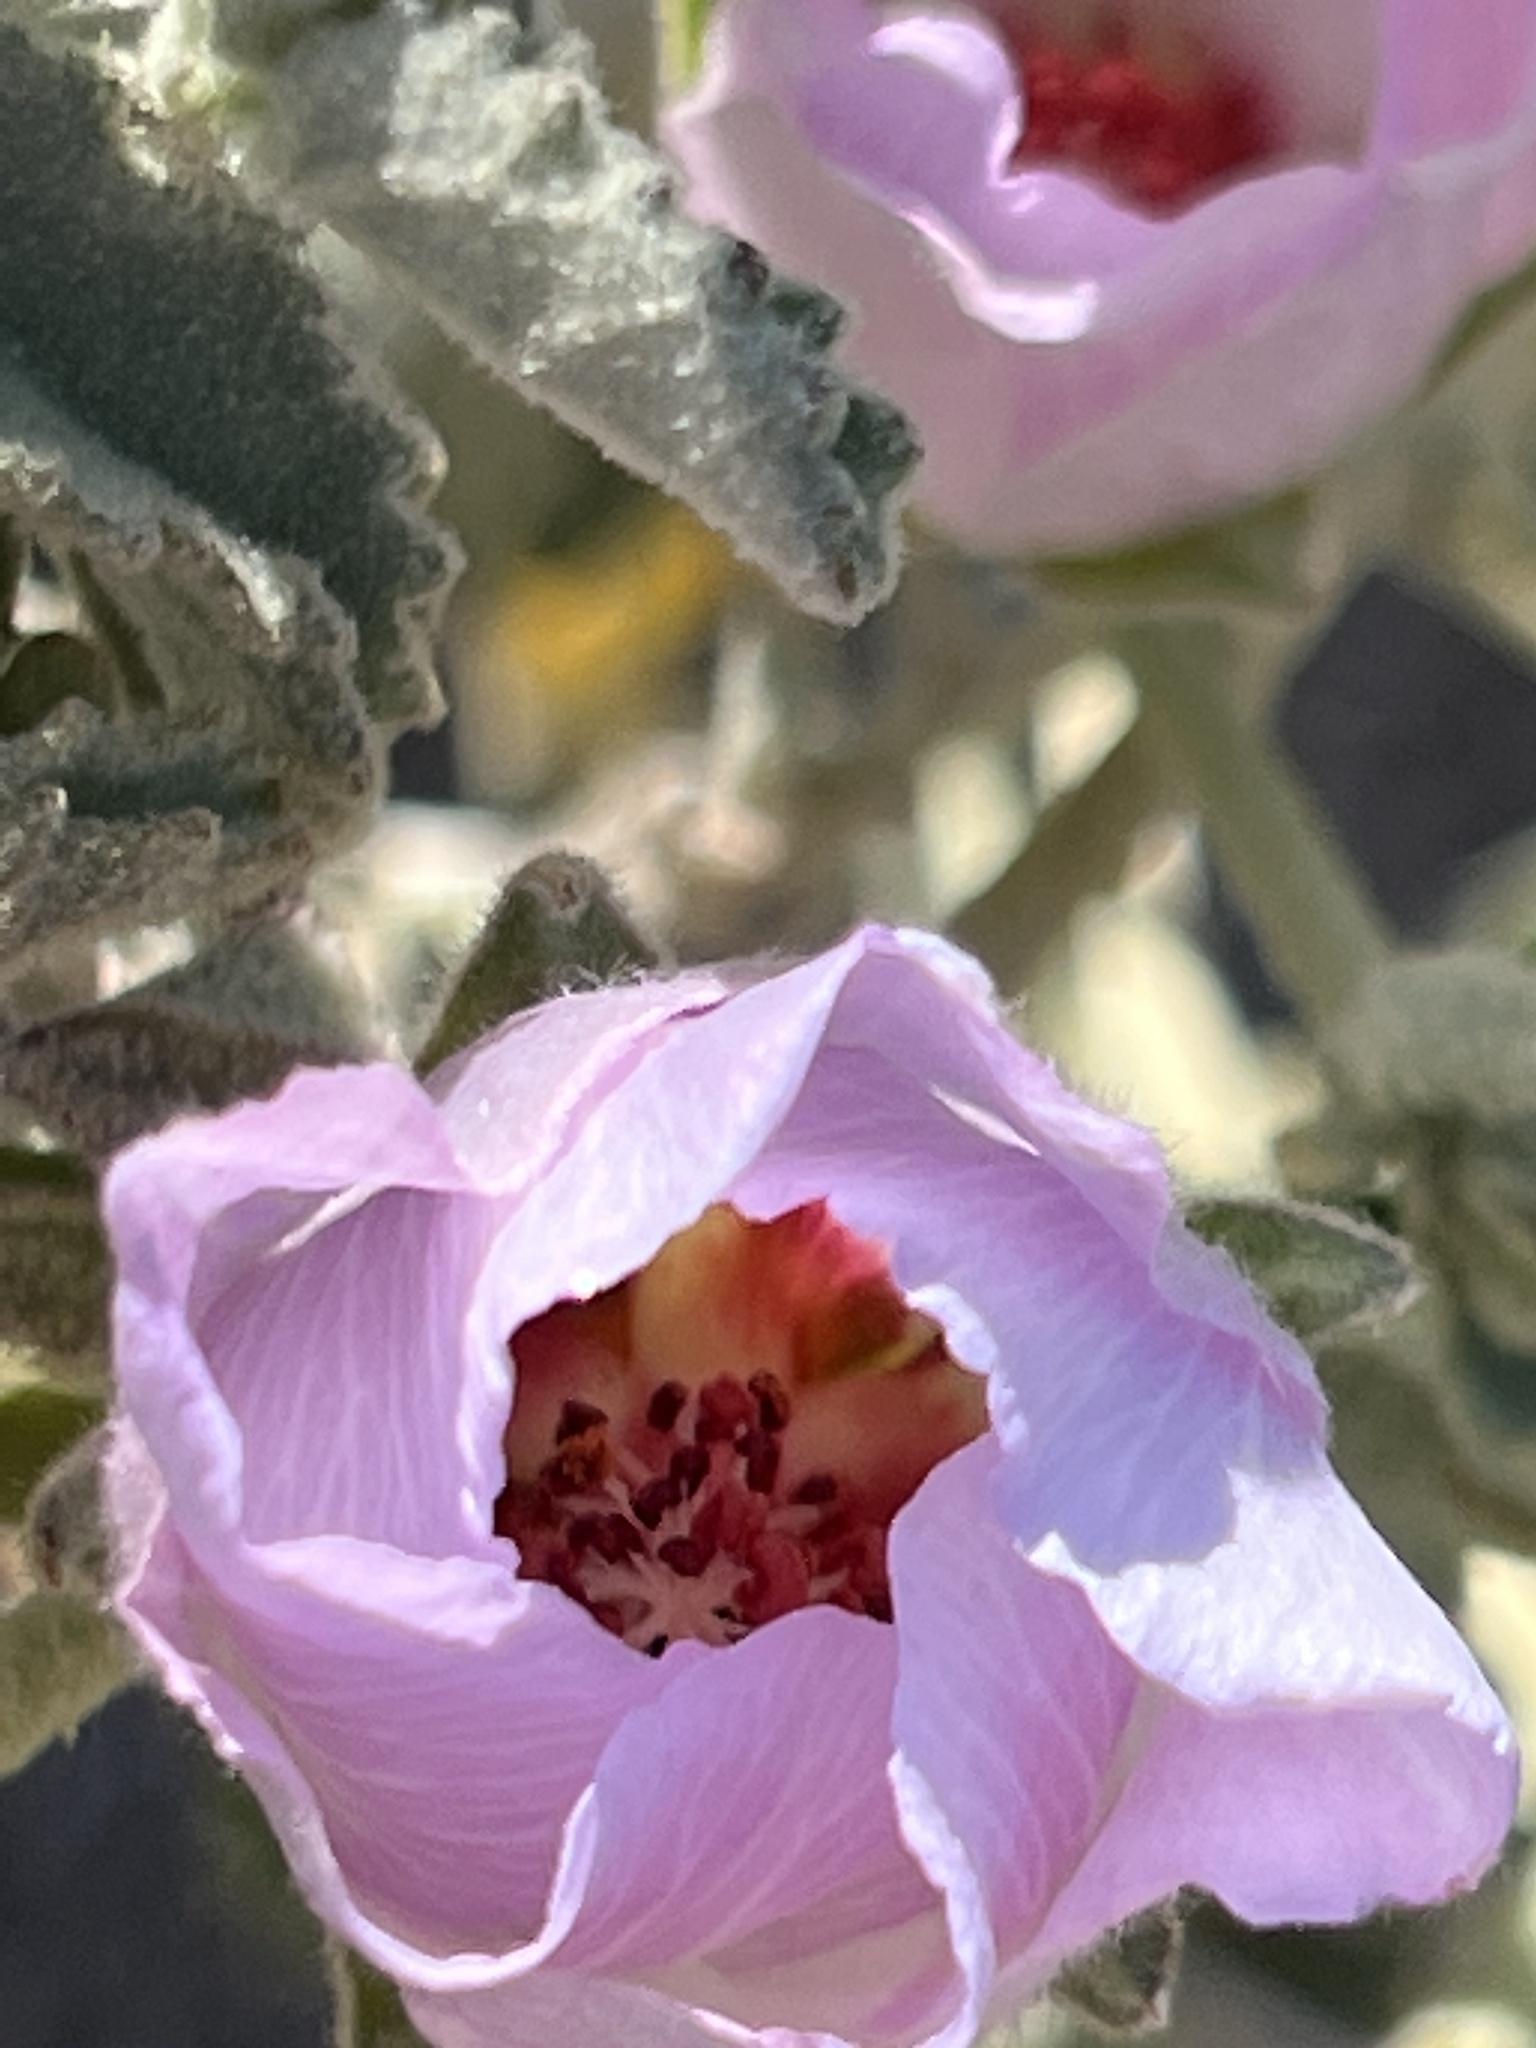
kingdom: Plantae
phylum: Tracheophyta
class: Magnoliopsida
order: Malvales
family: Malvaceae
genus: Hibiscus
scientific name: Hibiscus denudatus
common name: Paleface
